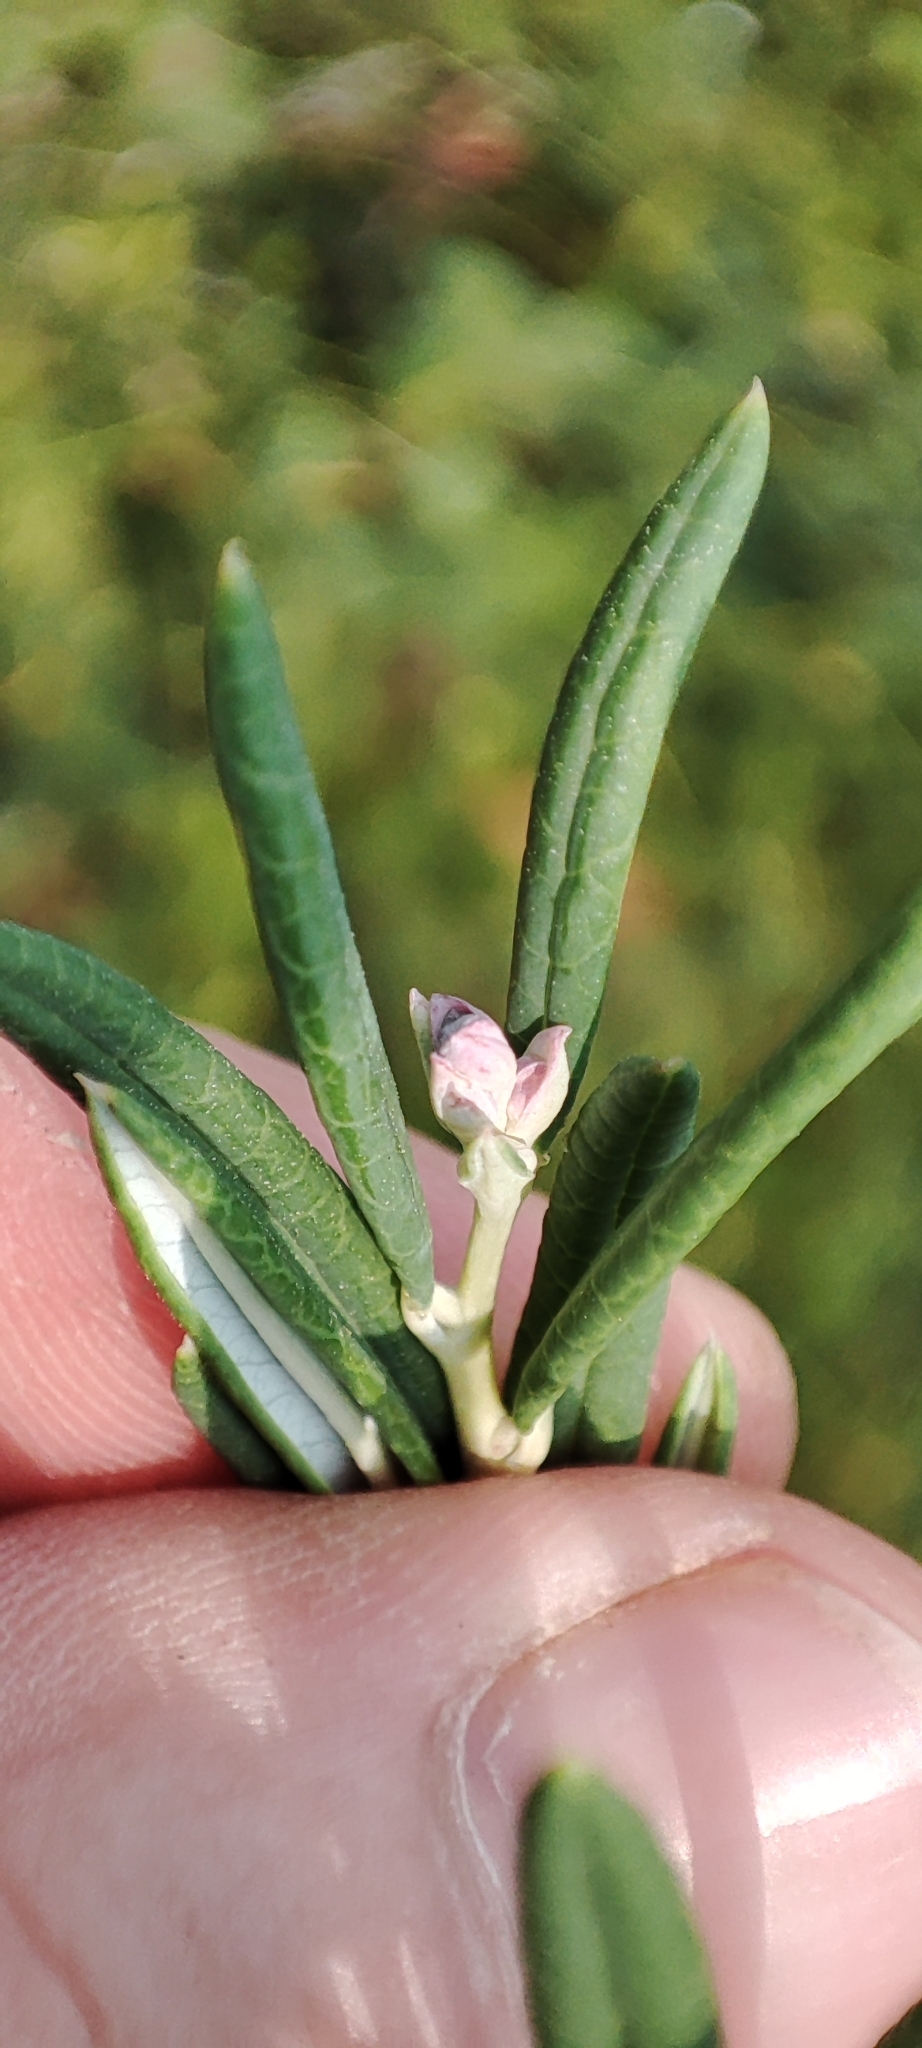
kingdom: Plantae
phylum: Tracheophyta
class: Magnoliopsida
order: Ericales
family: Ericaceae
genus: Andromeda
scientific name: Andromeda polifolia
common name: Bog-rosemary
